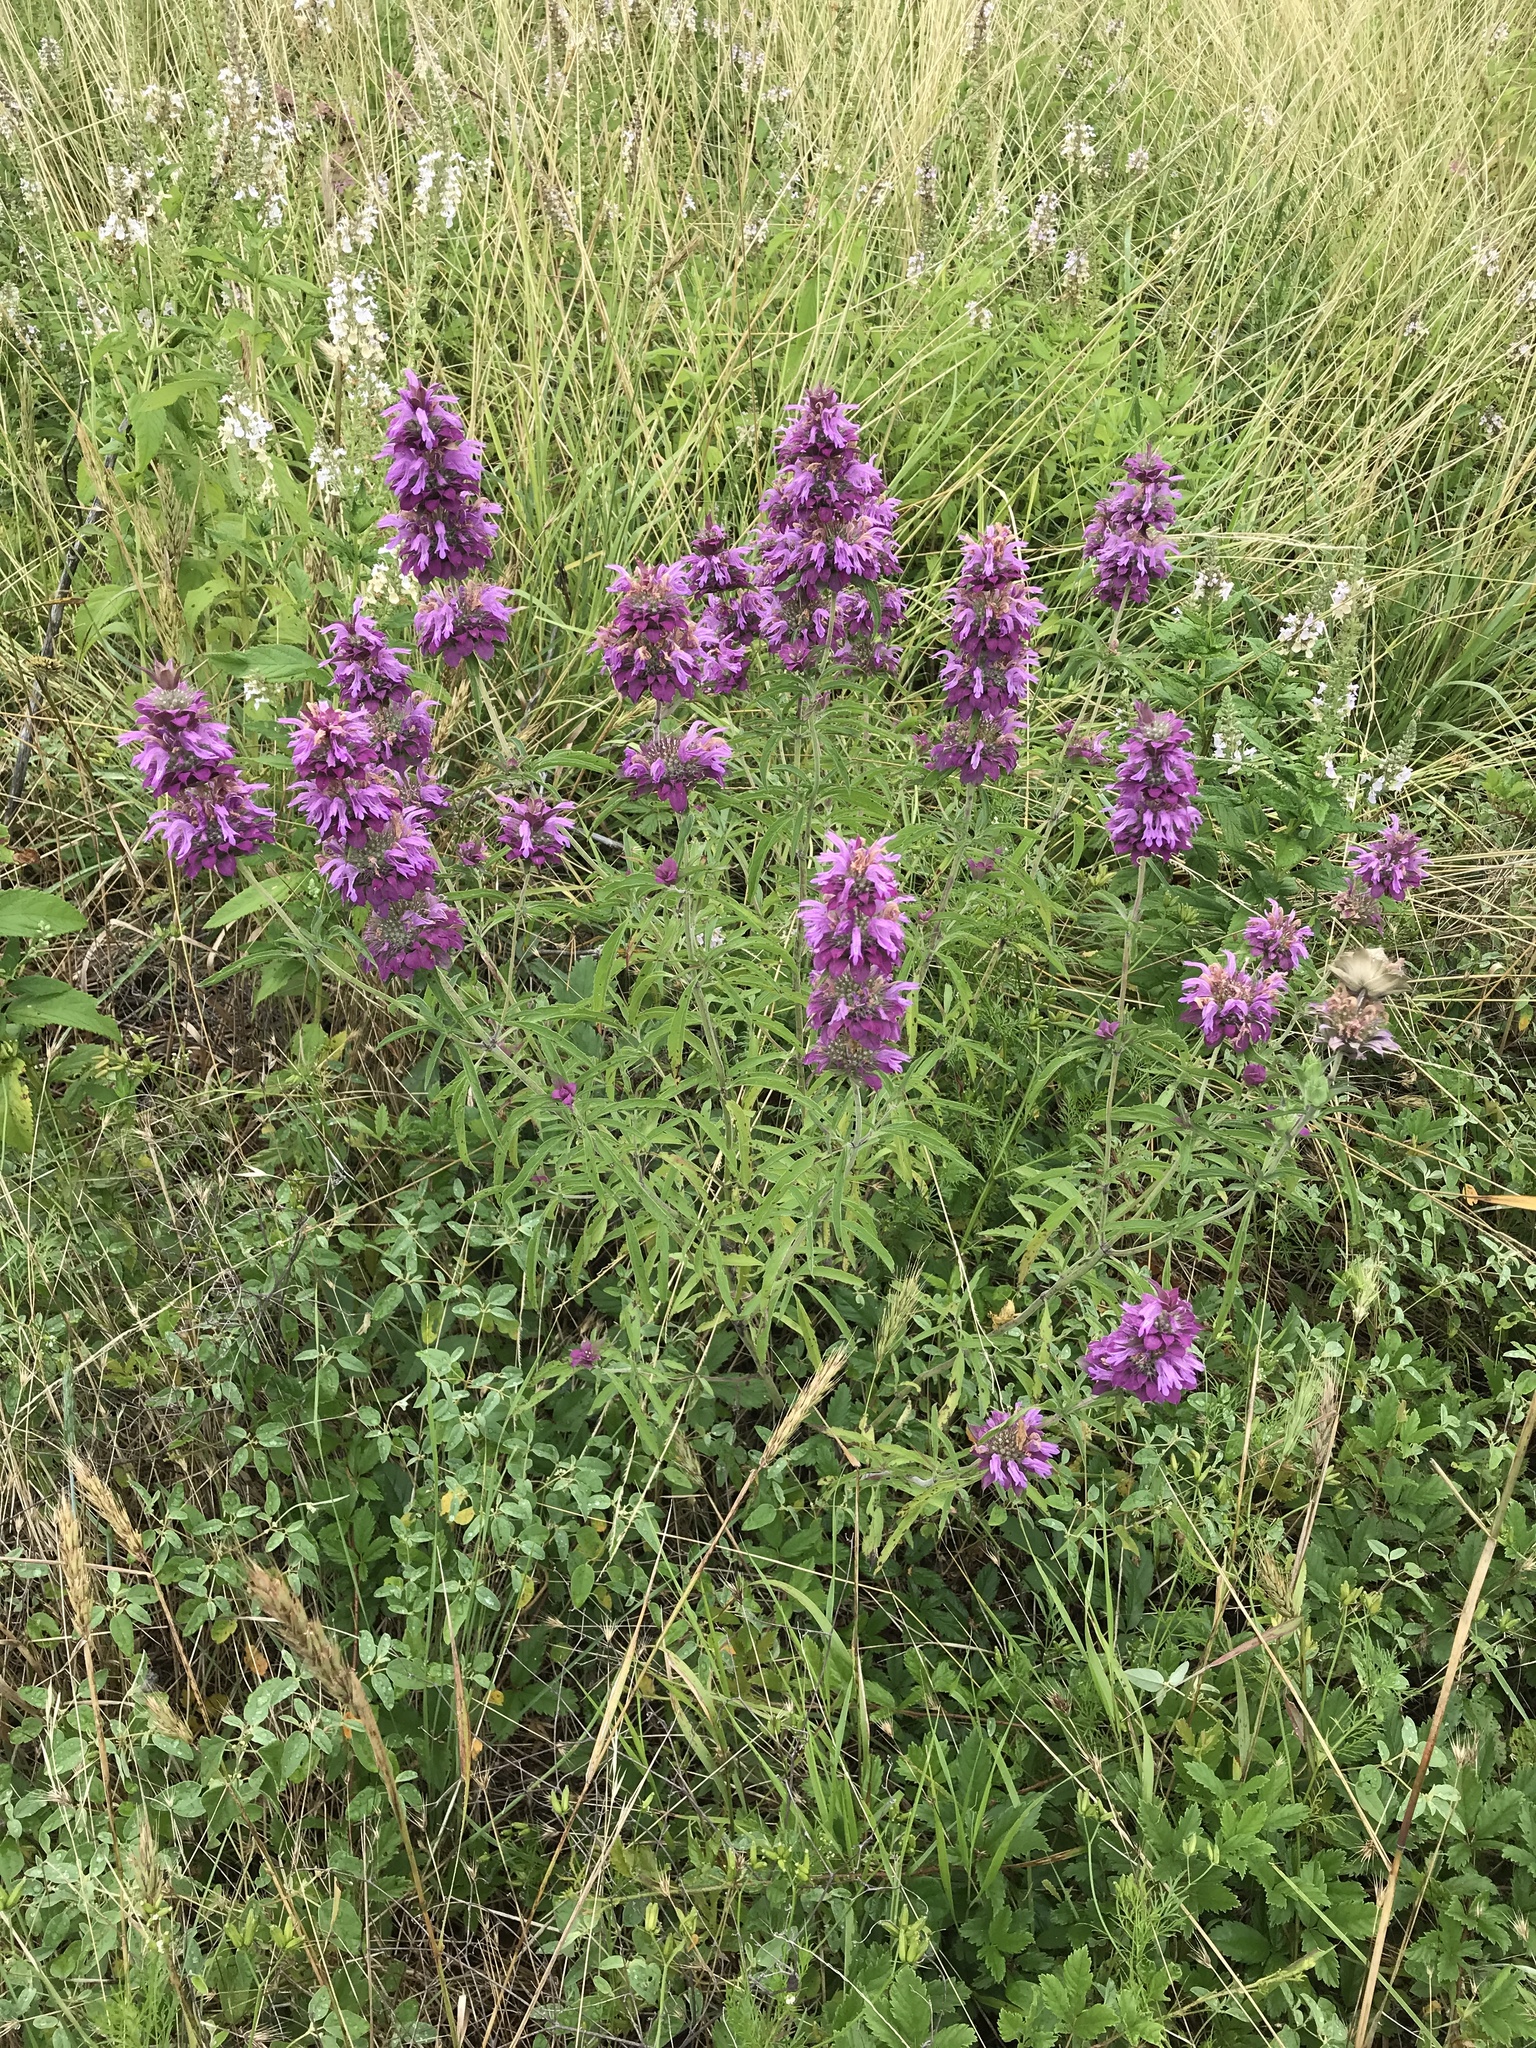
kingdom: Plantae
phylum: Tracheophyta
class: Magnoliopsida
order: Lamiales
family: Lamiaceae
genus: Monarda
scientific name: Monarda citriodora
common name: Lemon beebalm
